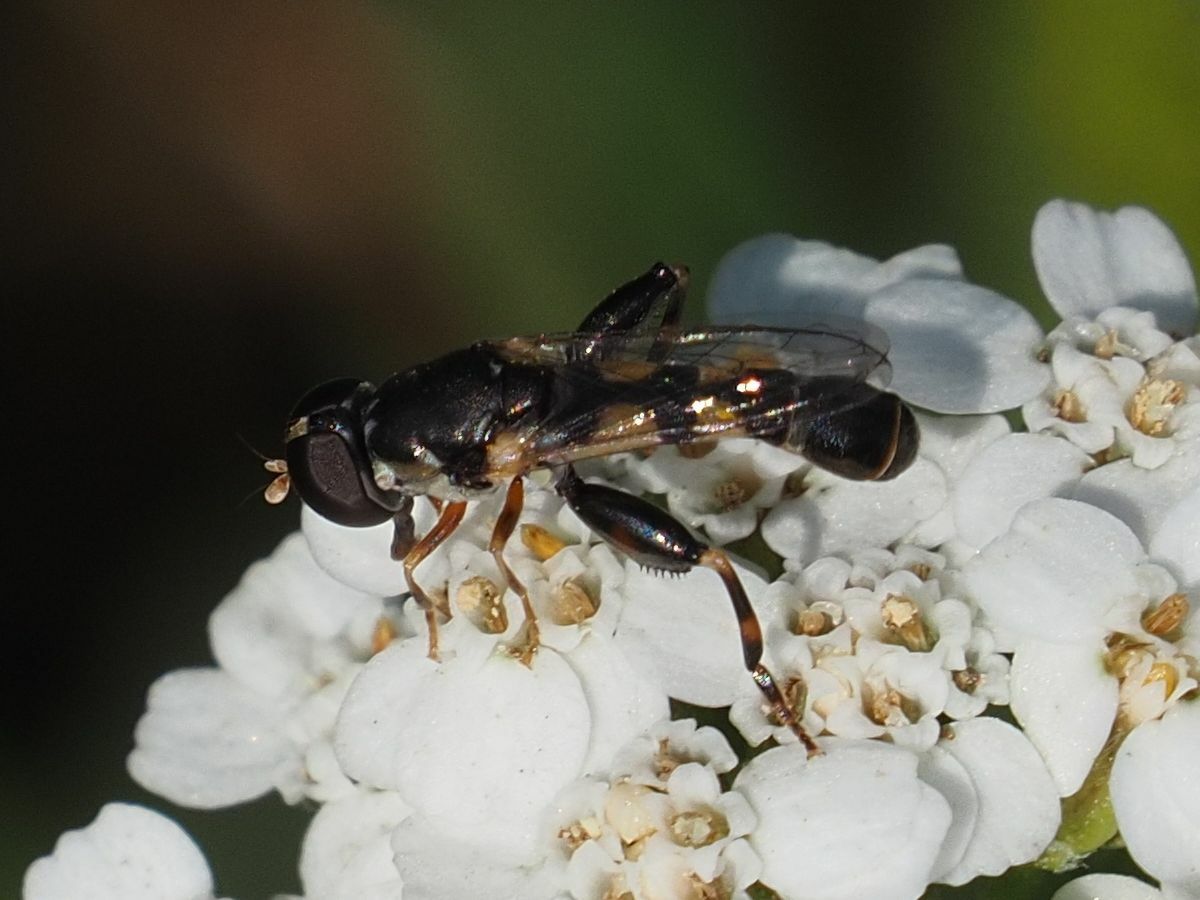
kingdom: Animalia
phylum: Arthropoda
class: Insecta
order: Diptera
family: Syrphidae
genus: Syritta
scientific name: Syritta pipiens
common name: Hover fly
